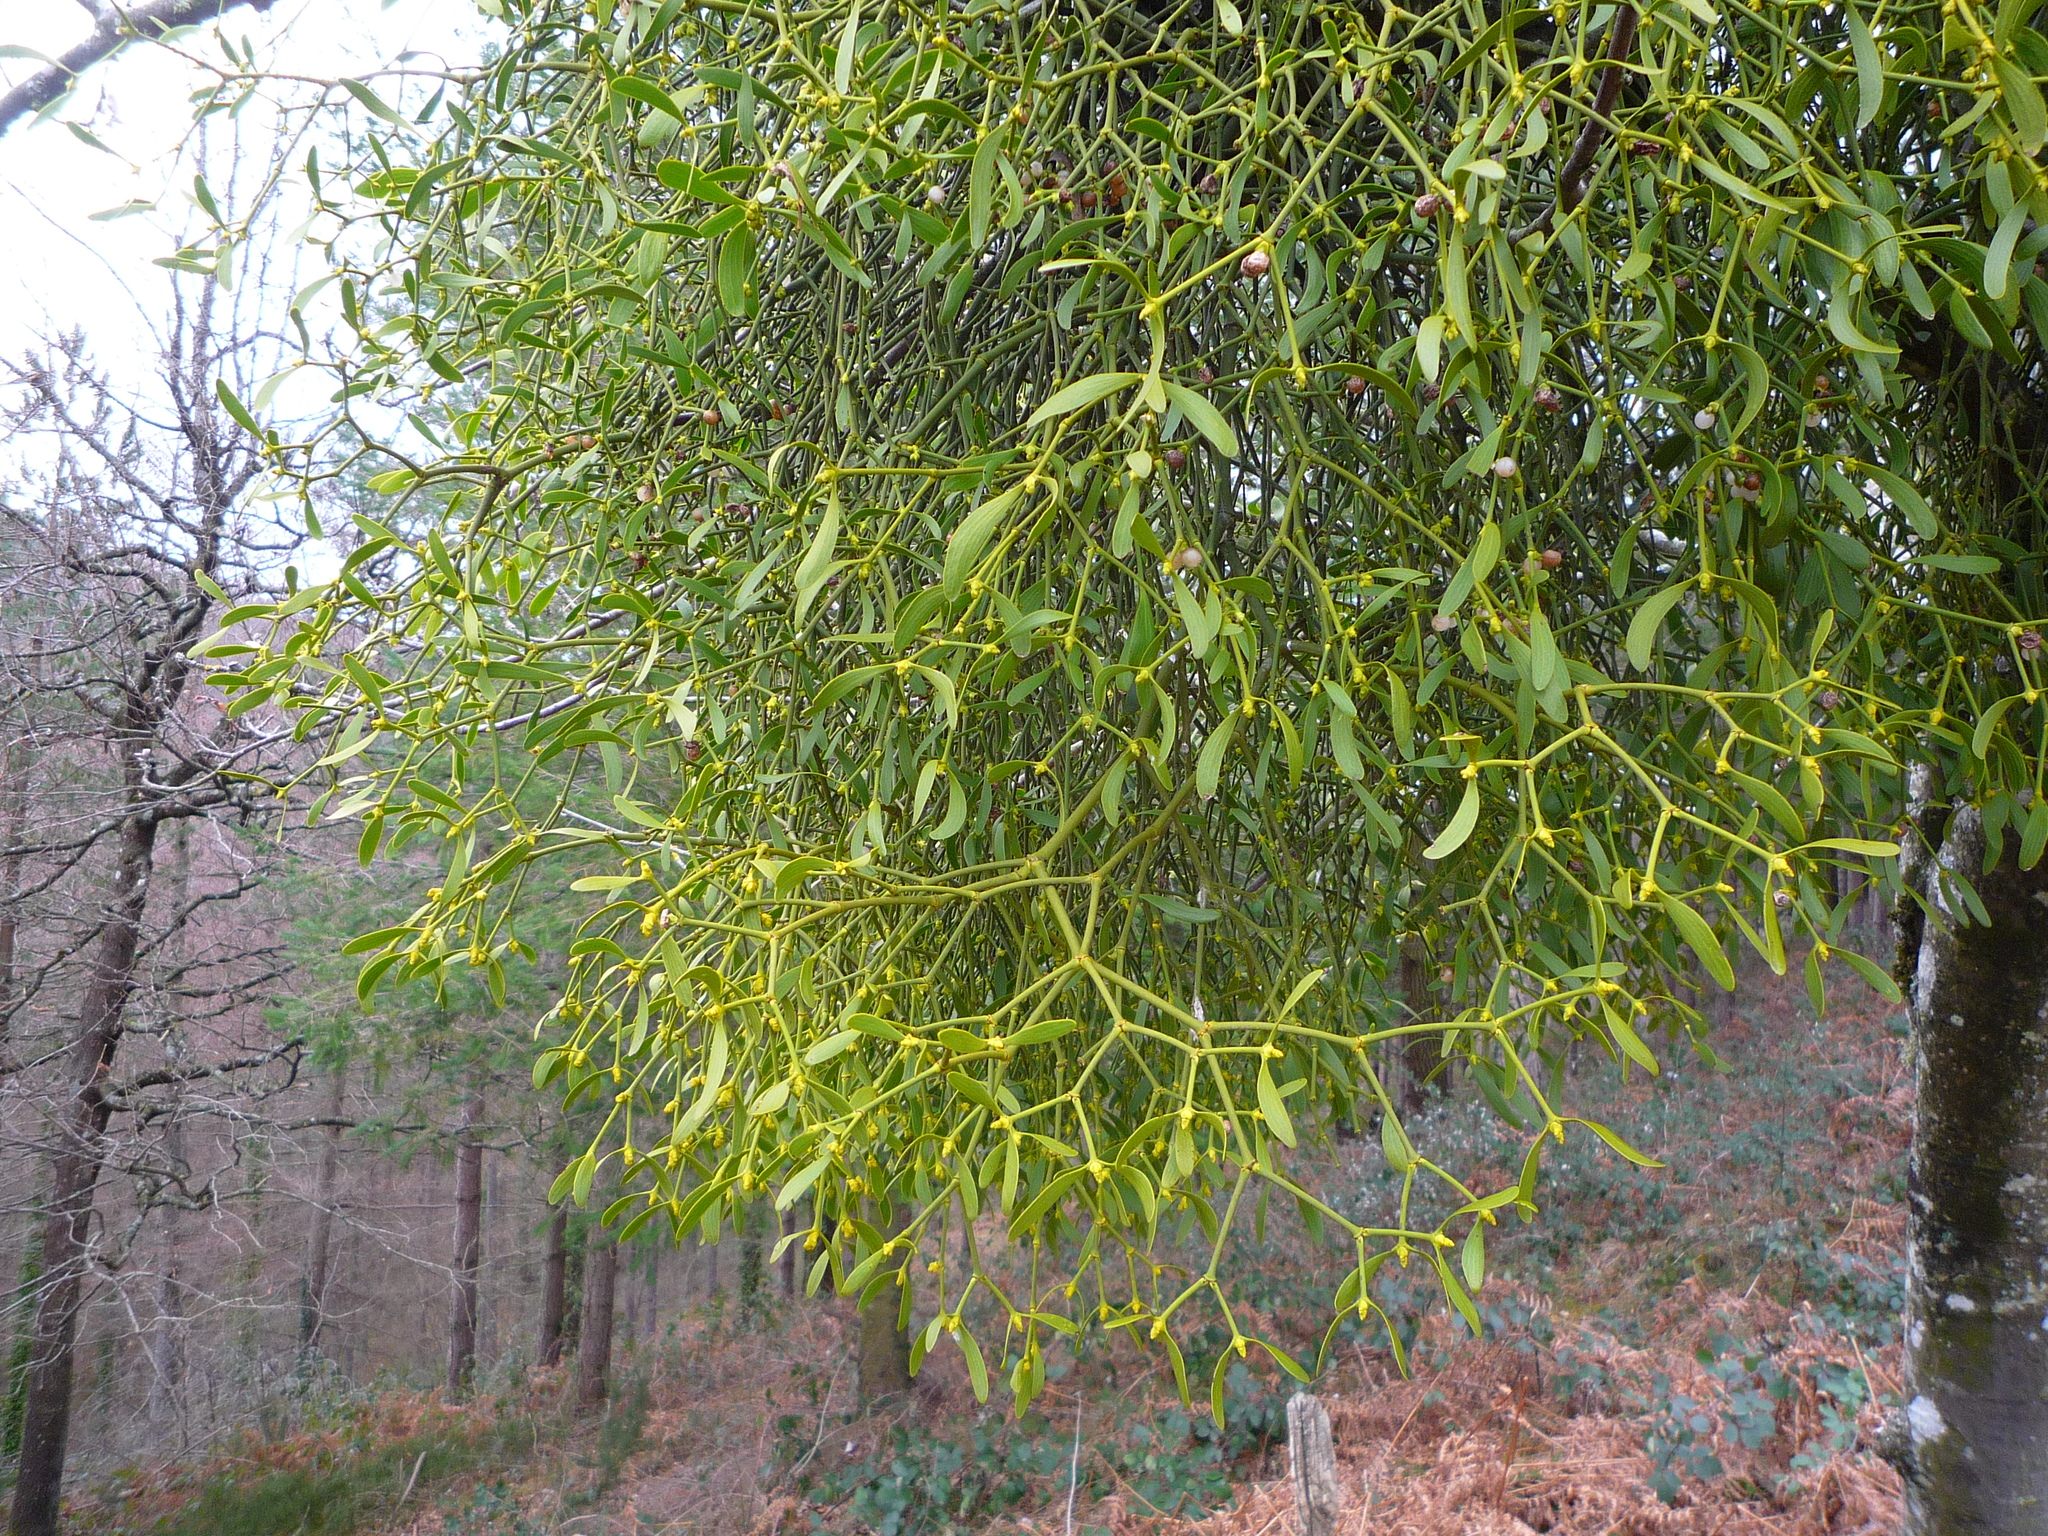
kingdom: Plantae
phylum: Tracheophyta
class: Magnoliopsida
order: Santalales
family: Viscaceae
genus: Viscum
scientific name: Viscum album
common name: Mistletoe
